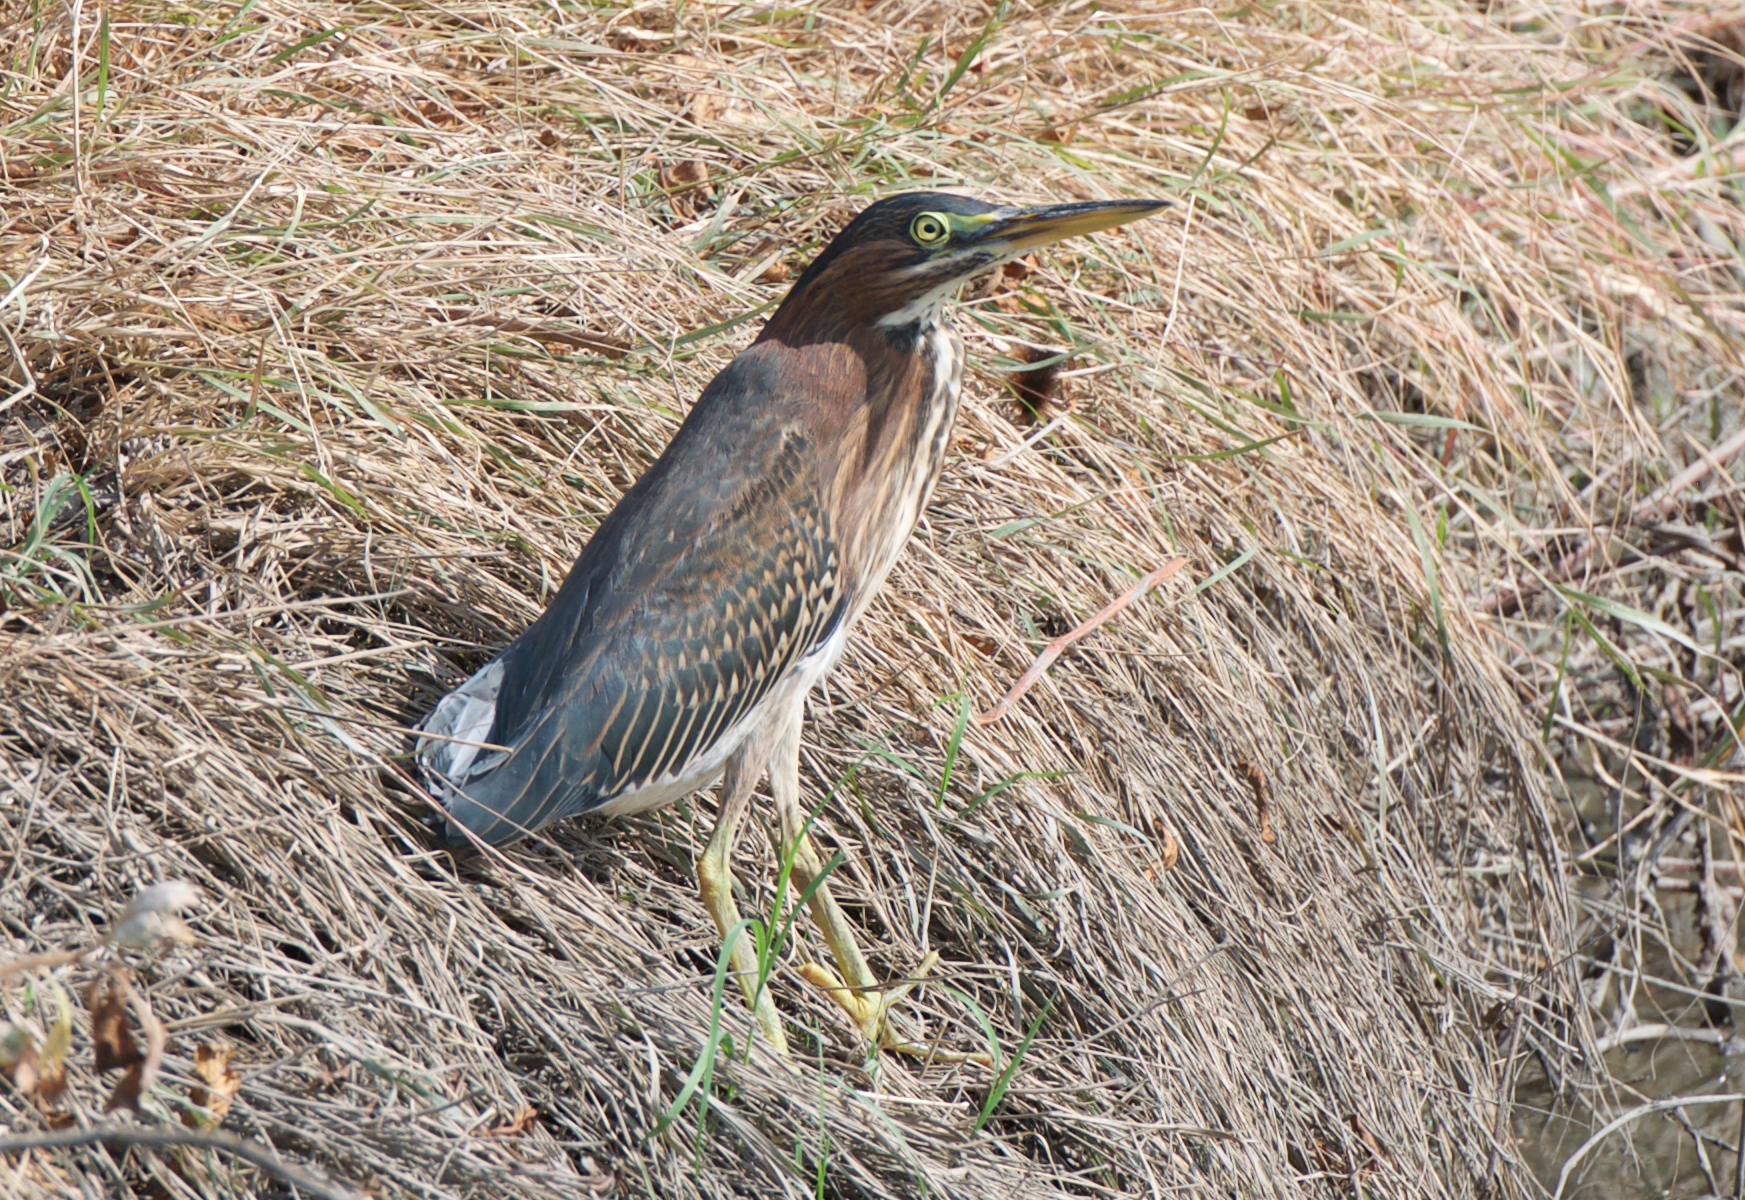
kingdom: Animalia
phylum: Chordata
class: Aves
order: Pelecaniformes
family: Ardeidae
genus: Butorides
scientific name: Butorides virescens
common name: Green heron
